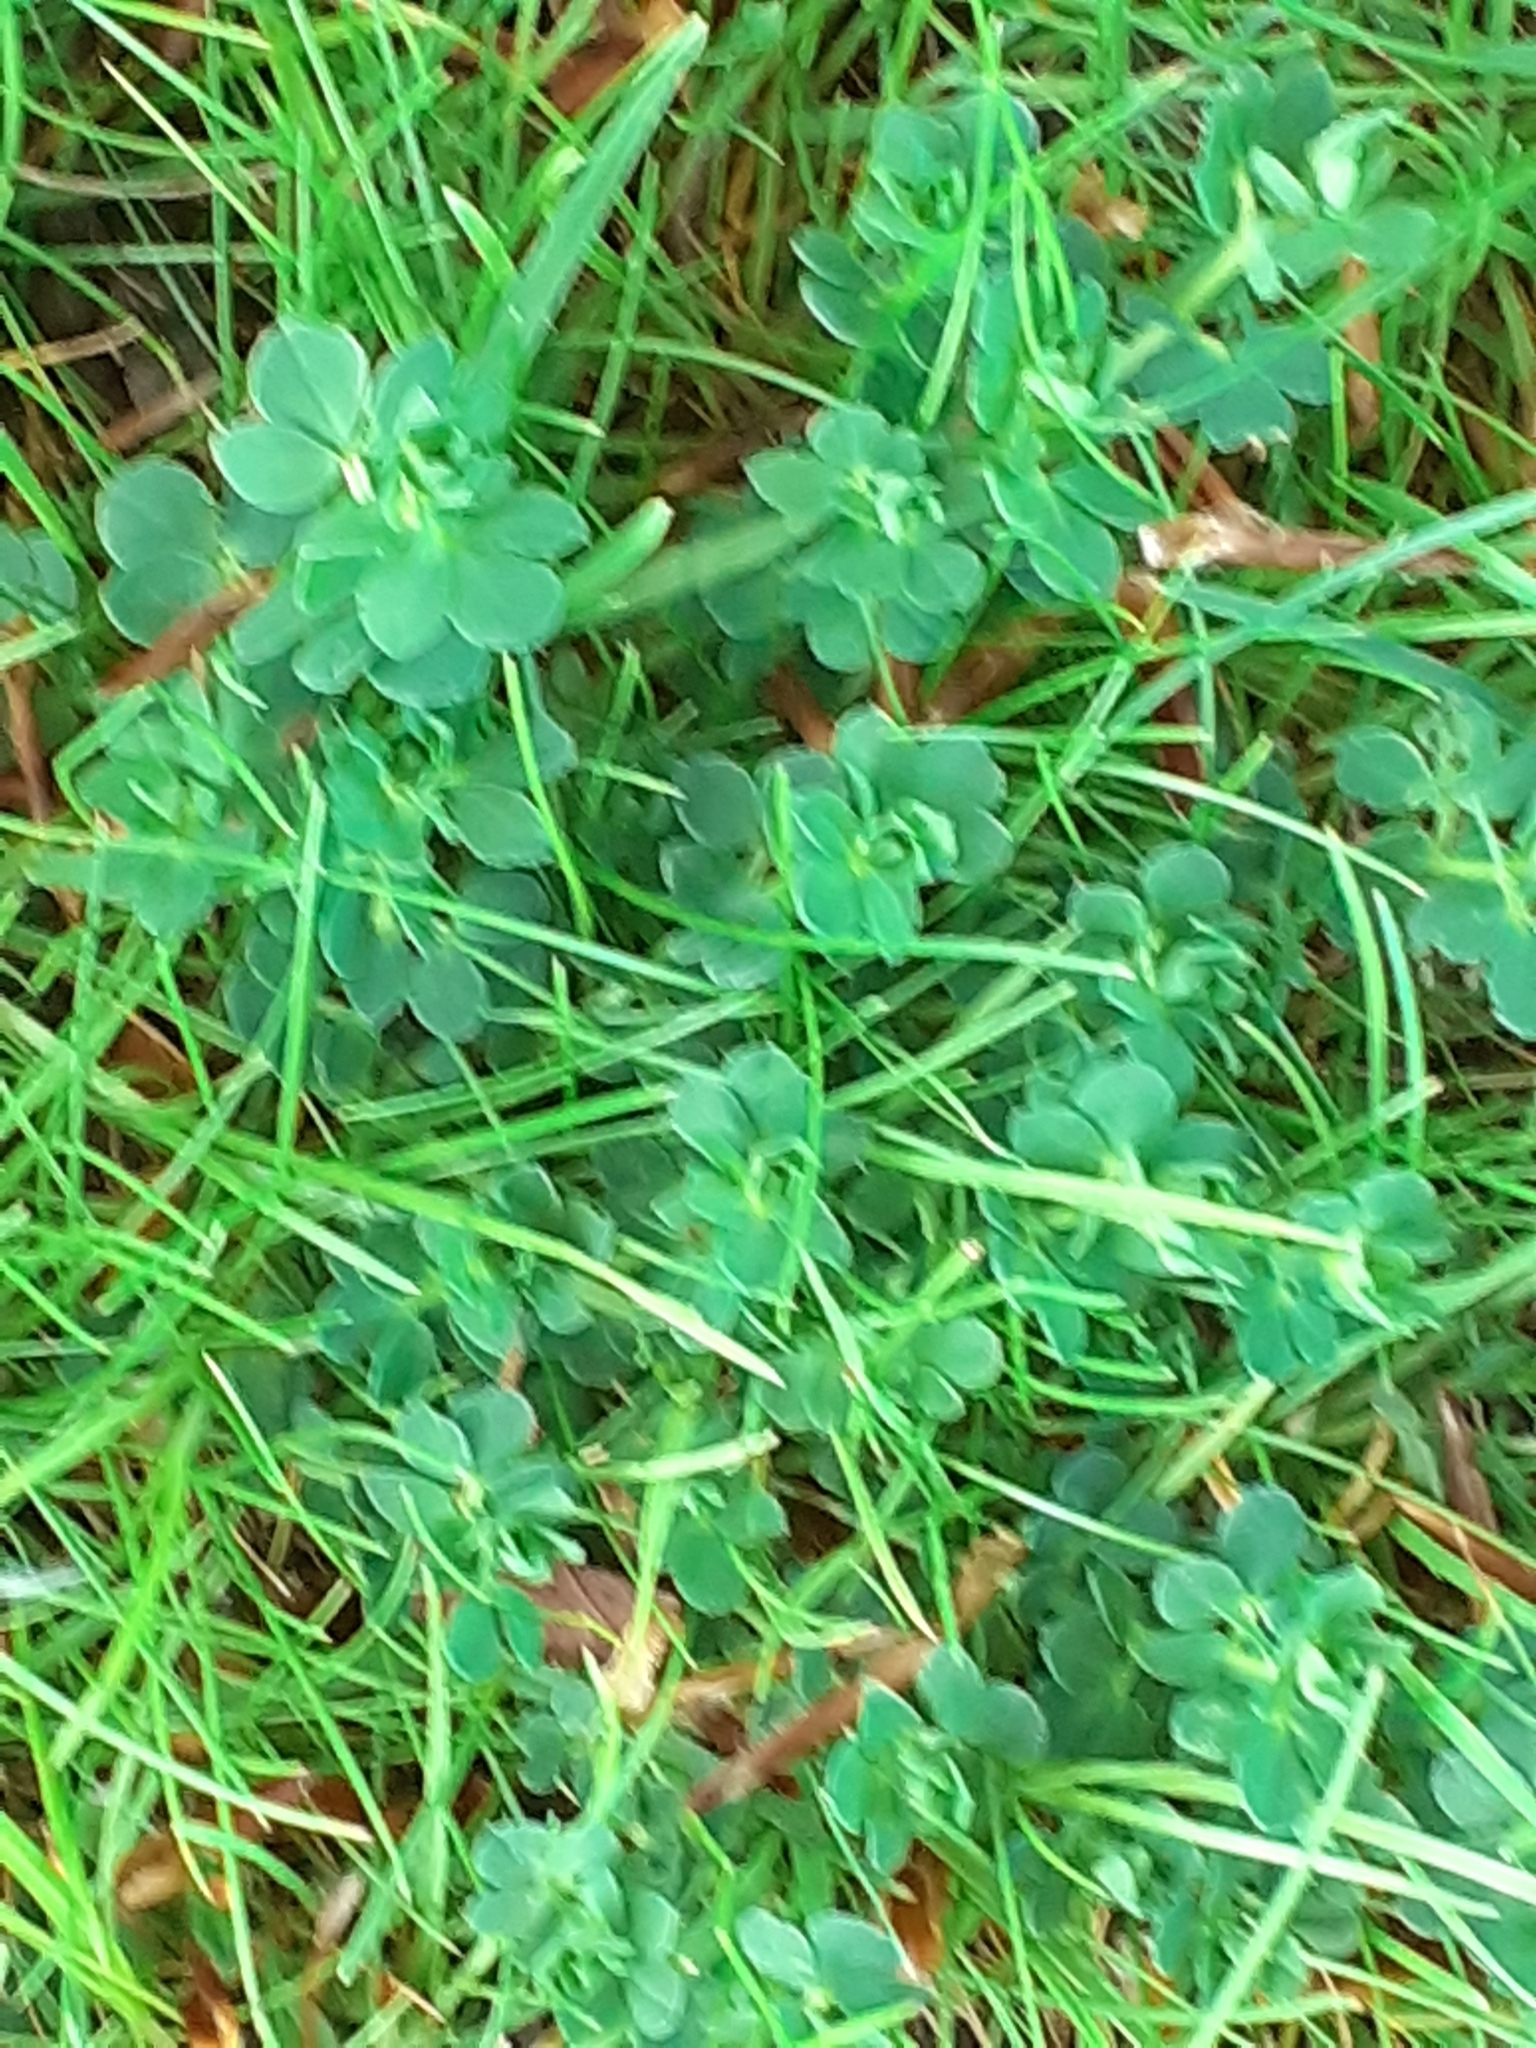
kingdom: Plantae
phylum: Tracheophyta
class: Magnoliopsida
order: Fabales
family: Fabaceae
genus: Lotus
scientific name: Lotus corniculatus
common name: Common bird's-foot-trefoil
